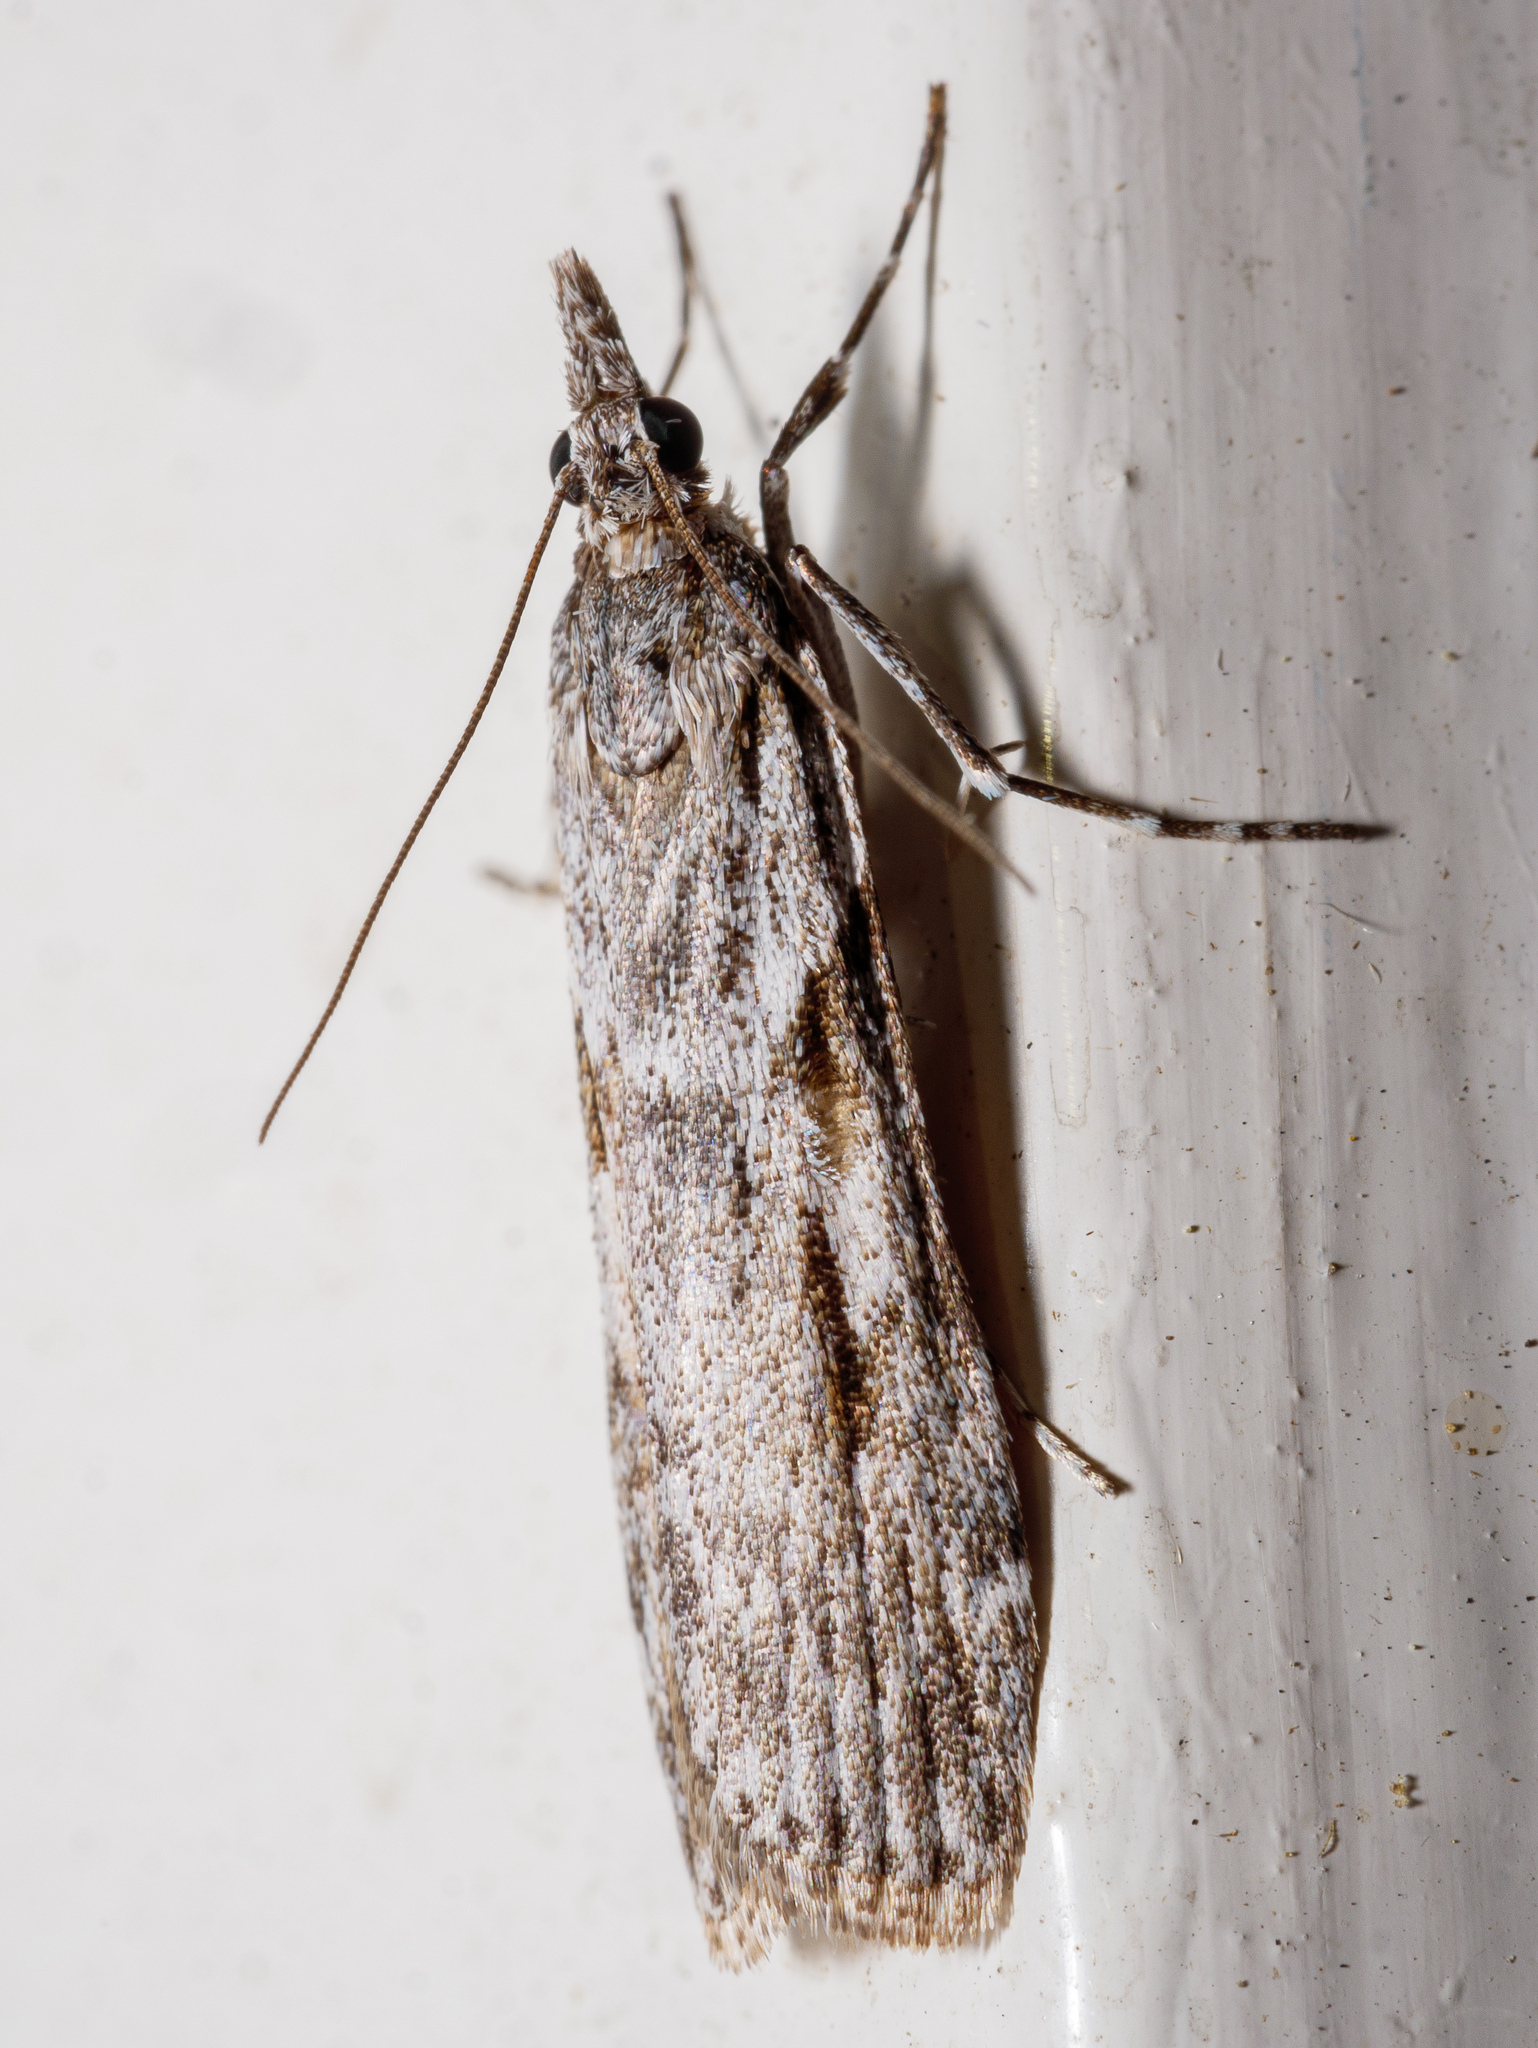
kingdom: Animalia
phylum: Arthropoda
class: Insecta
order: Lepidoptera
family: Crambidae
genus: Scoparia
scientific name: Scoparia halopis
